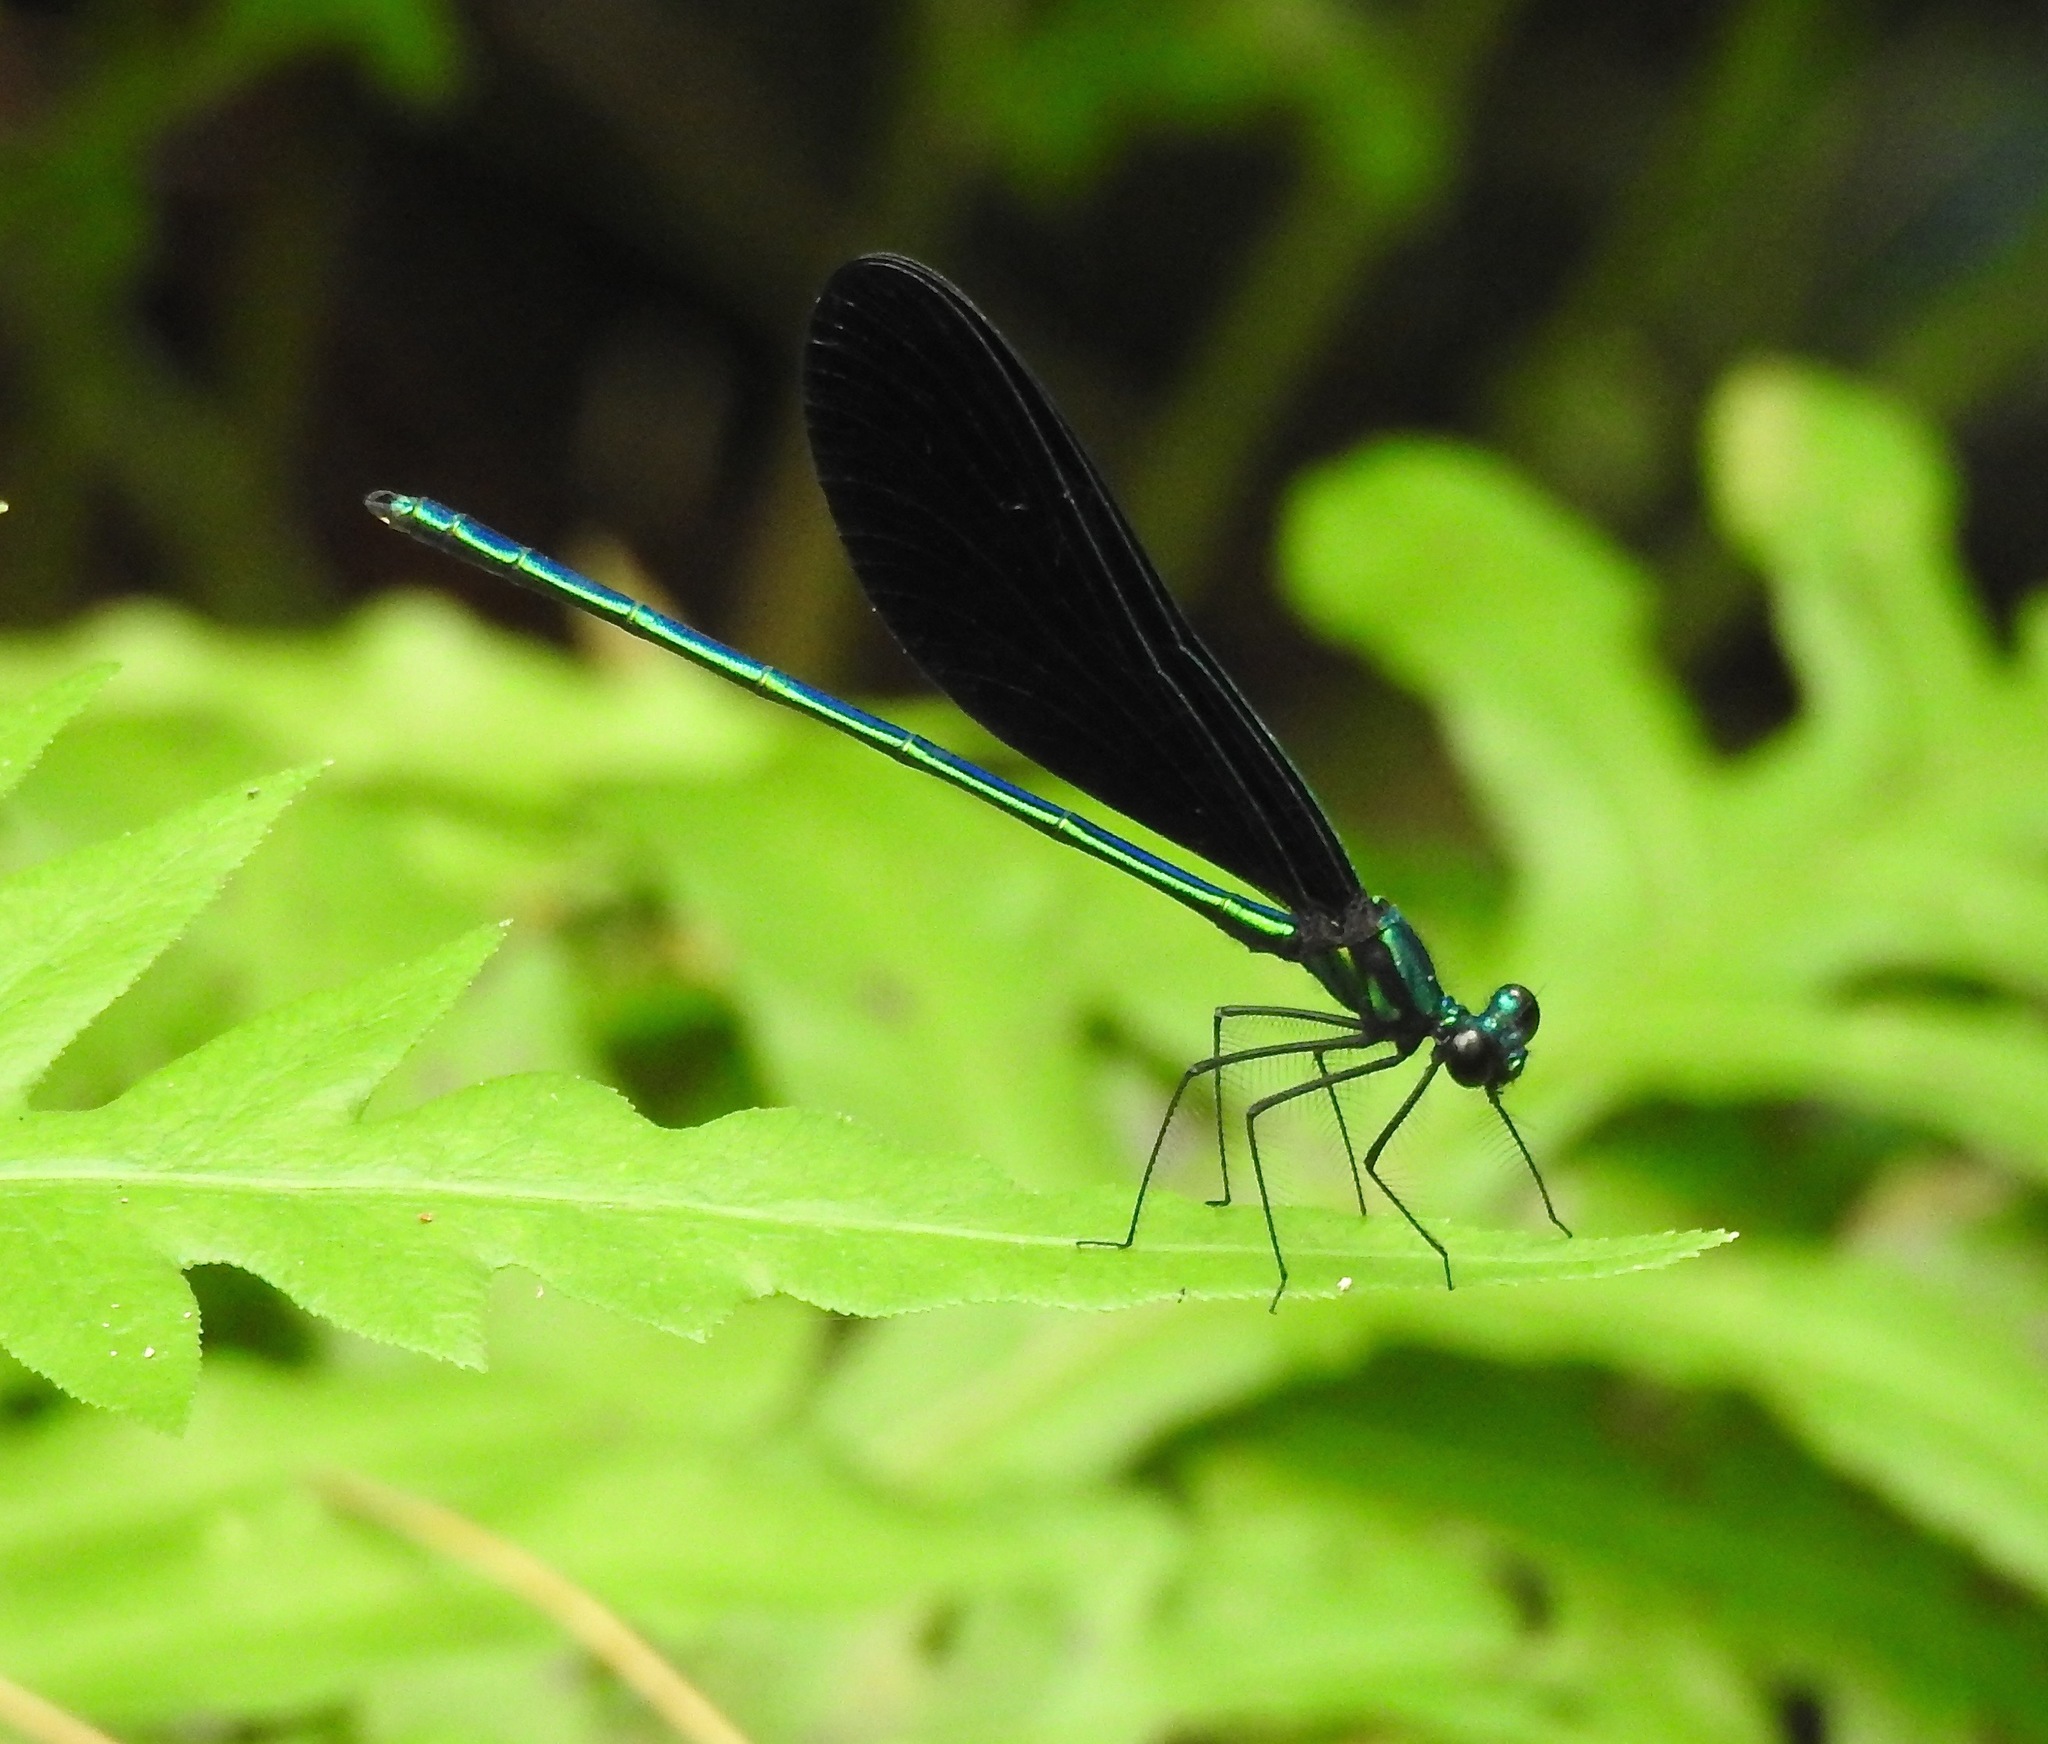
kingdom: Animalia
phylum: Arthropoda
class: Insecta
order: Odonata
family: Calopterygidae
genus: Calopteryx
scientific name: Calopteryx maculata
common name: Ebony jewelwing
